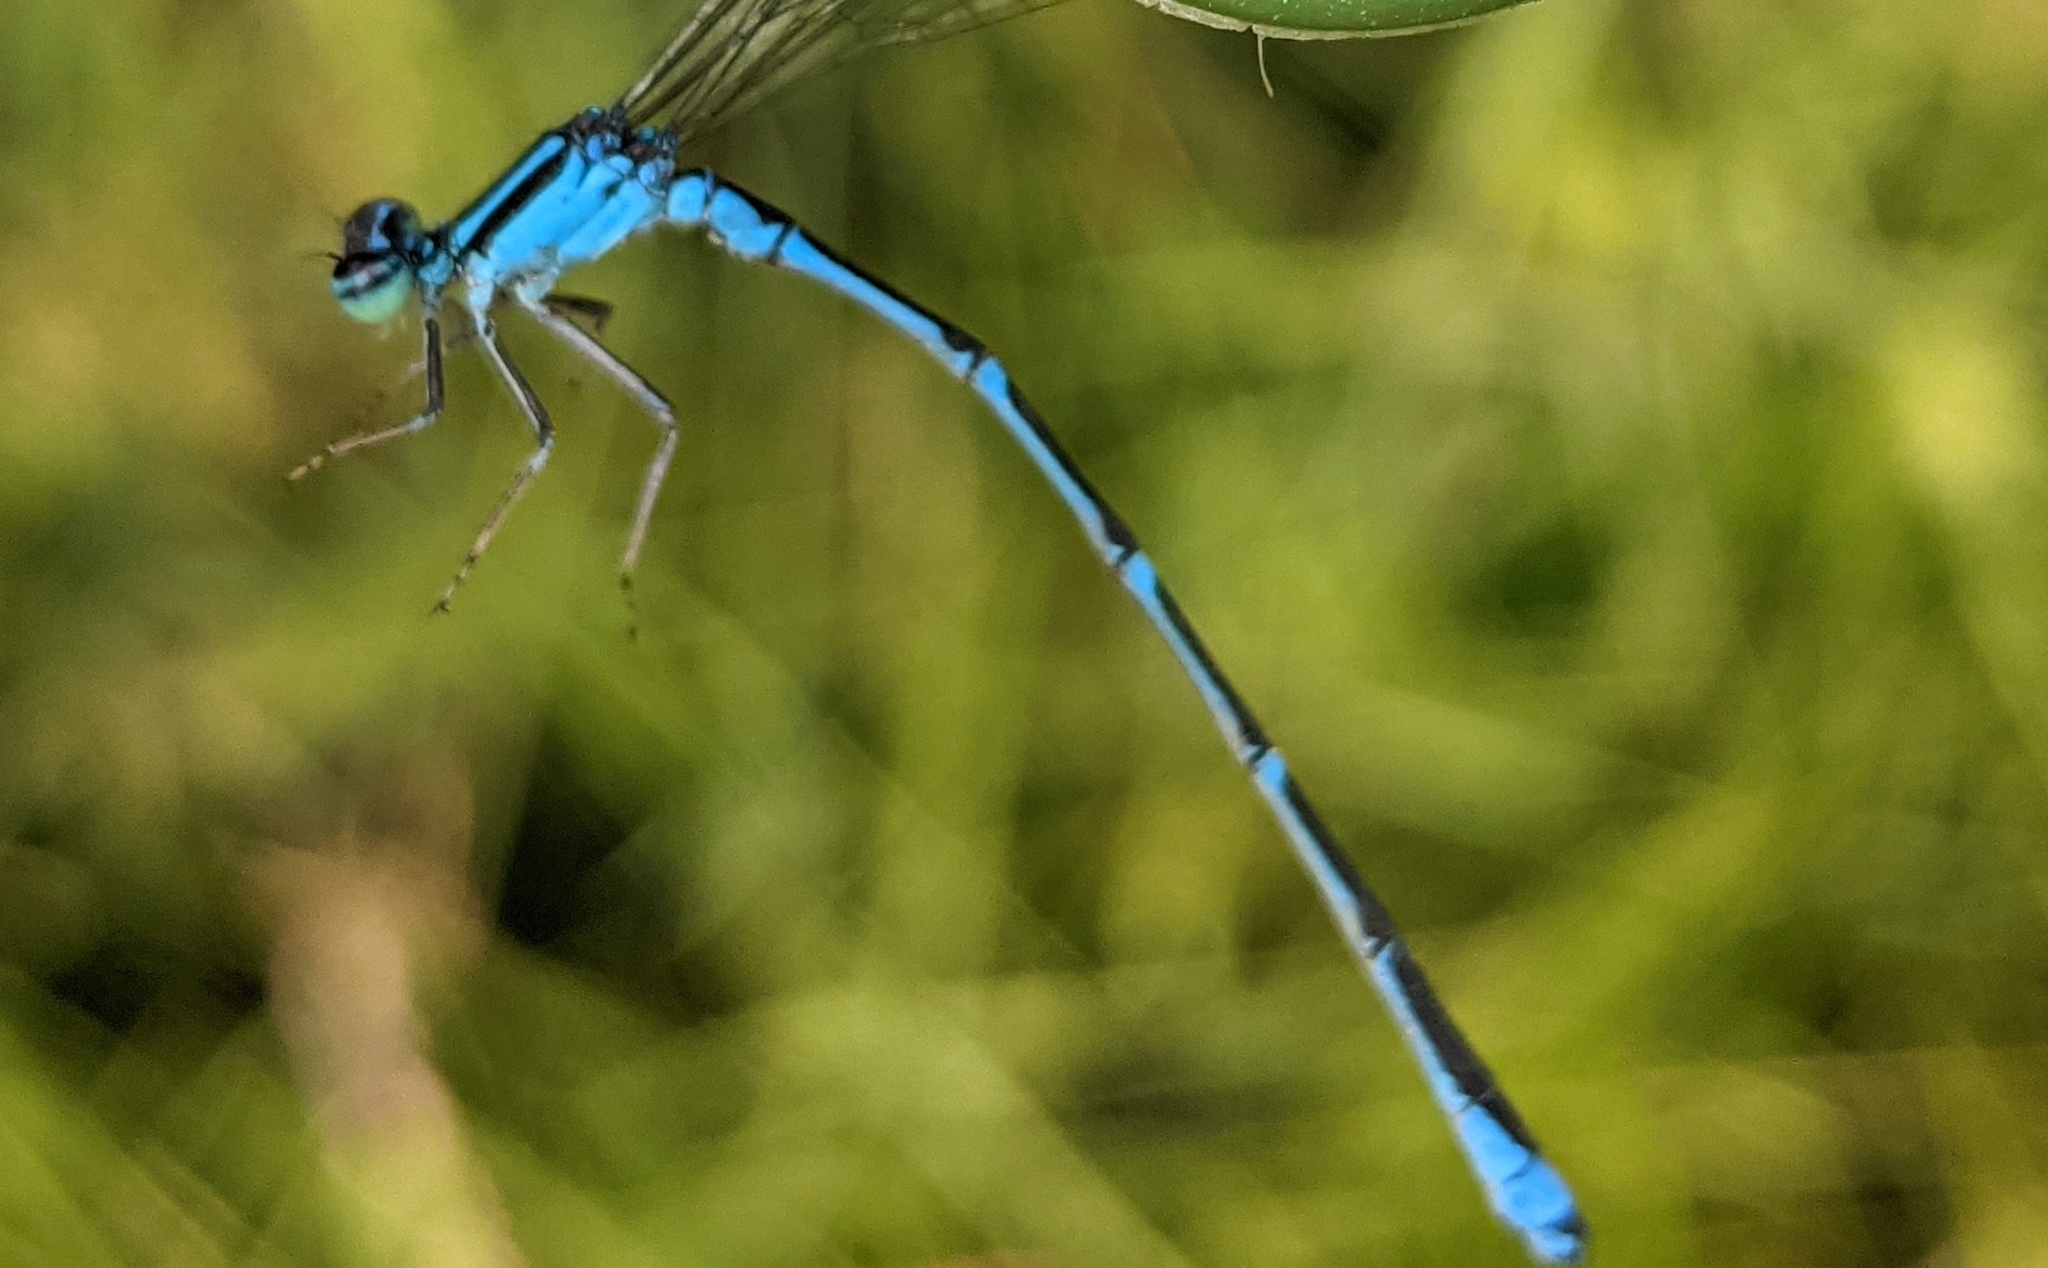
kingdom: Animalia
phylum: Arthropoda
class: Insecta
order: Odonata
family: Coenagrionidae
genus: Enallagma
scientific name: Enallagma exsulans
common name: Stream bluet
